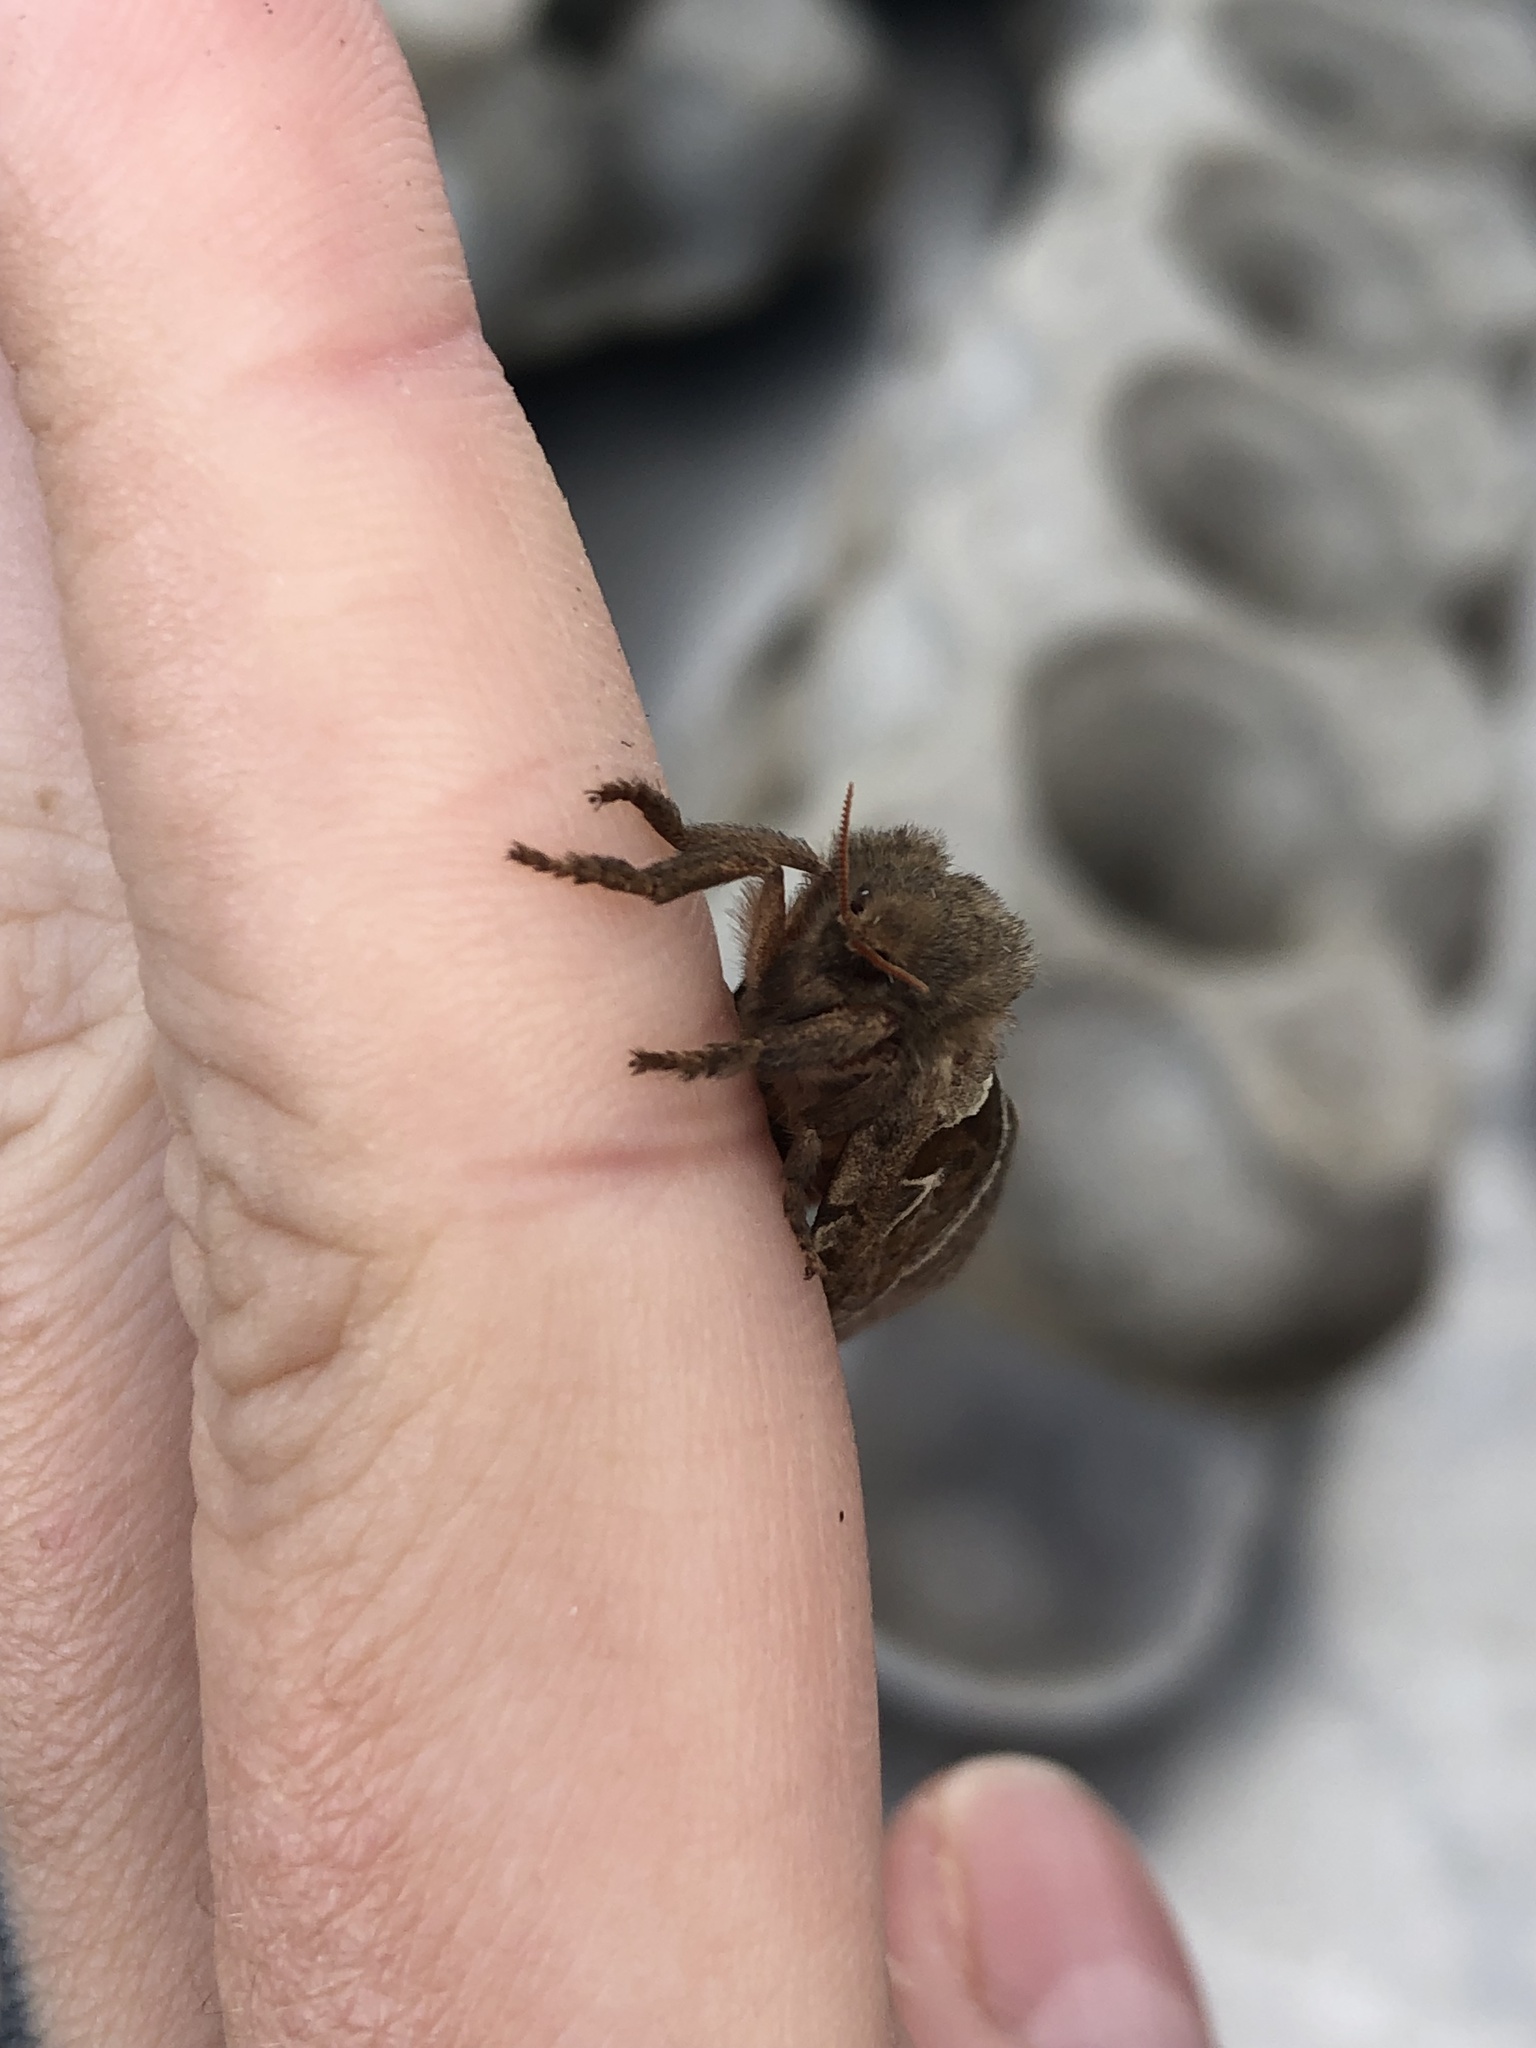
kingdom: Animalia
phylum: Arthropoda
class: Insecta
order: Lepidoptera
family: Hepialidae
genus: Triodia
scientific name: Triodia sylvina
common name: Orange swift
